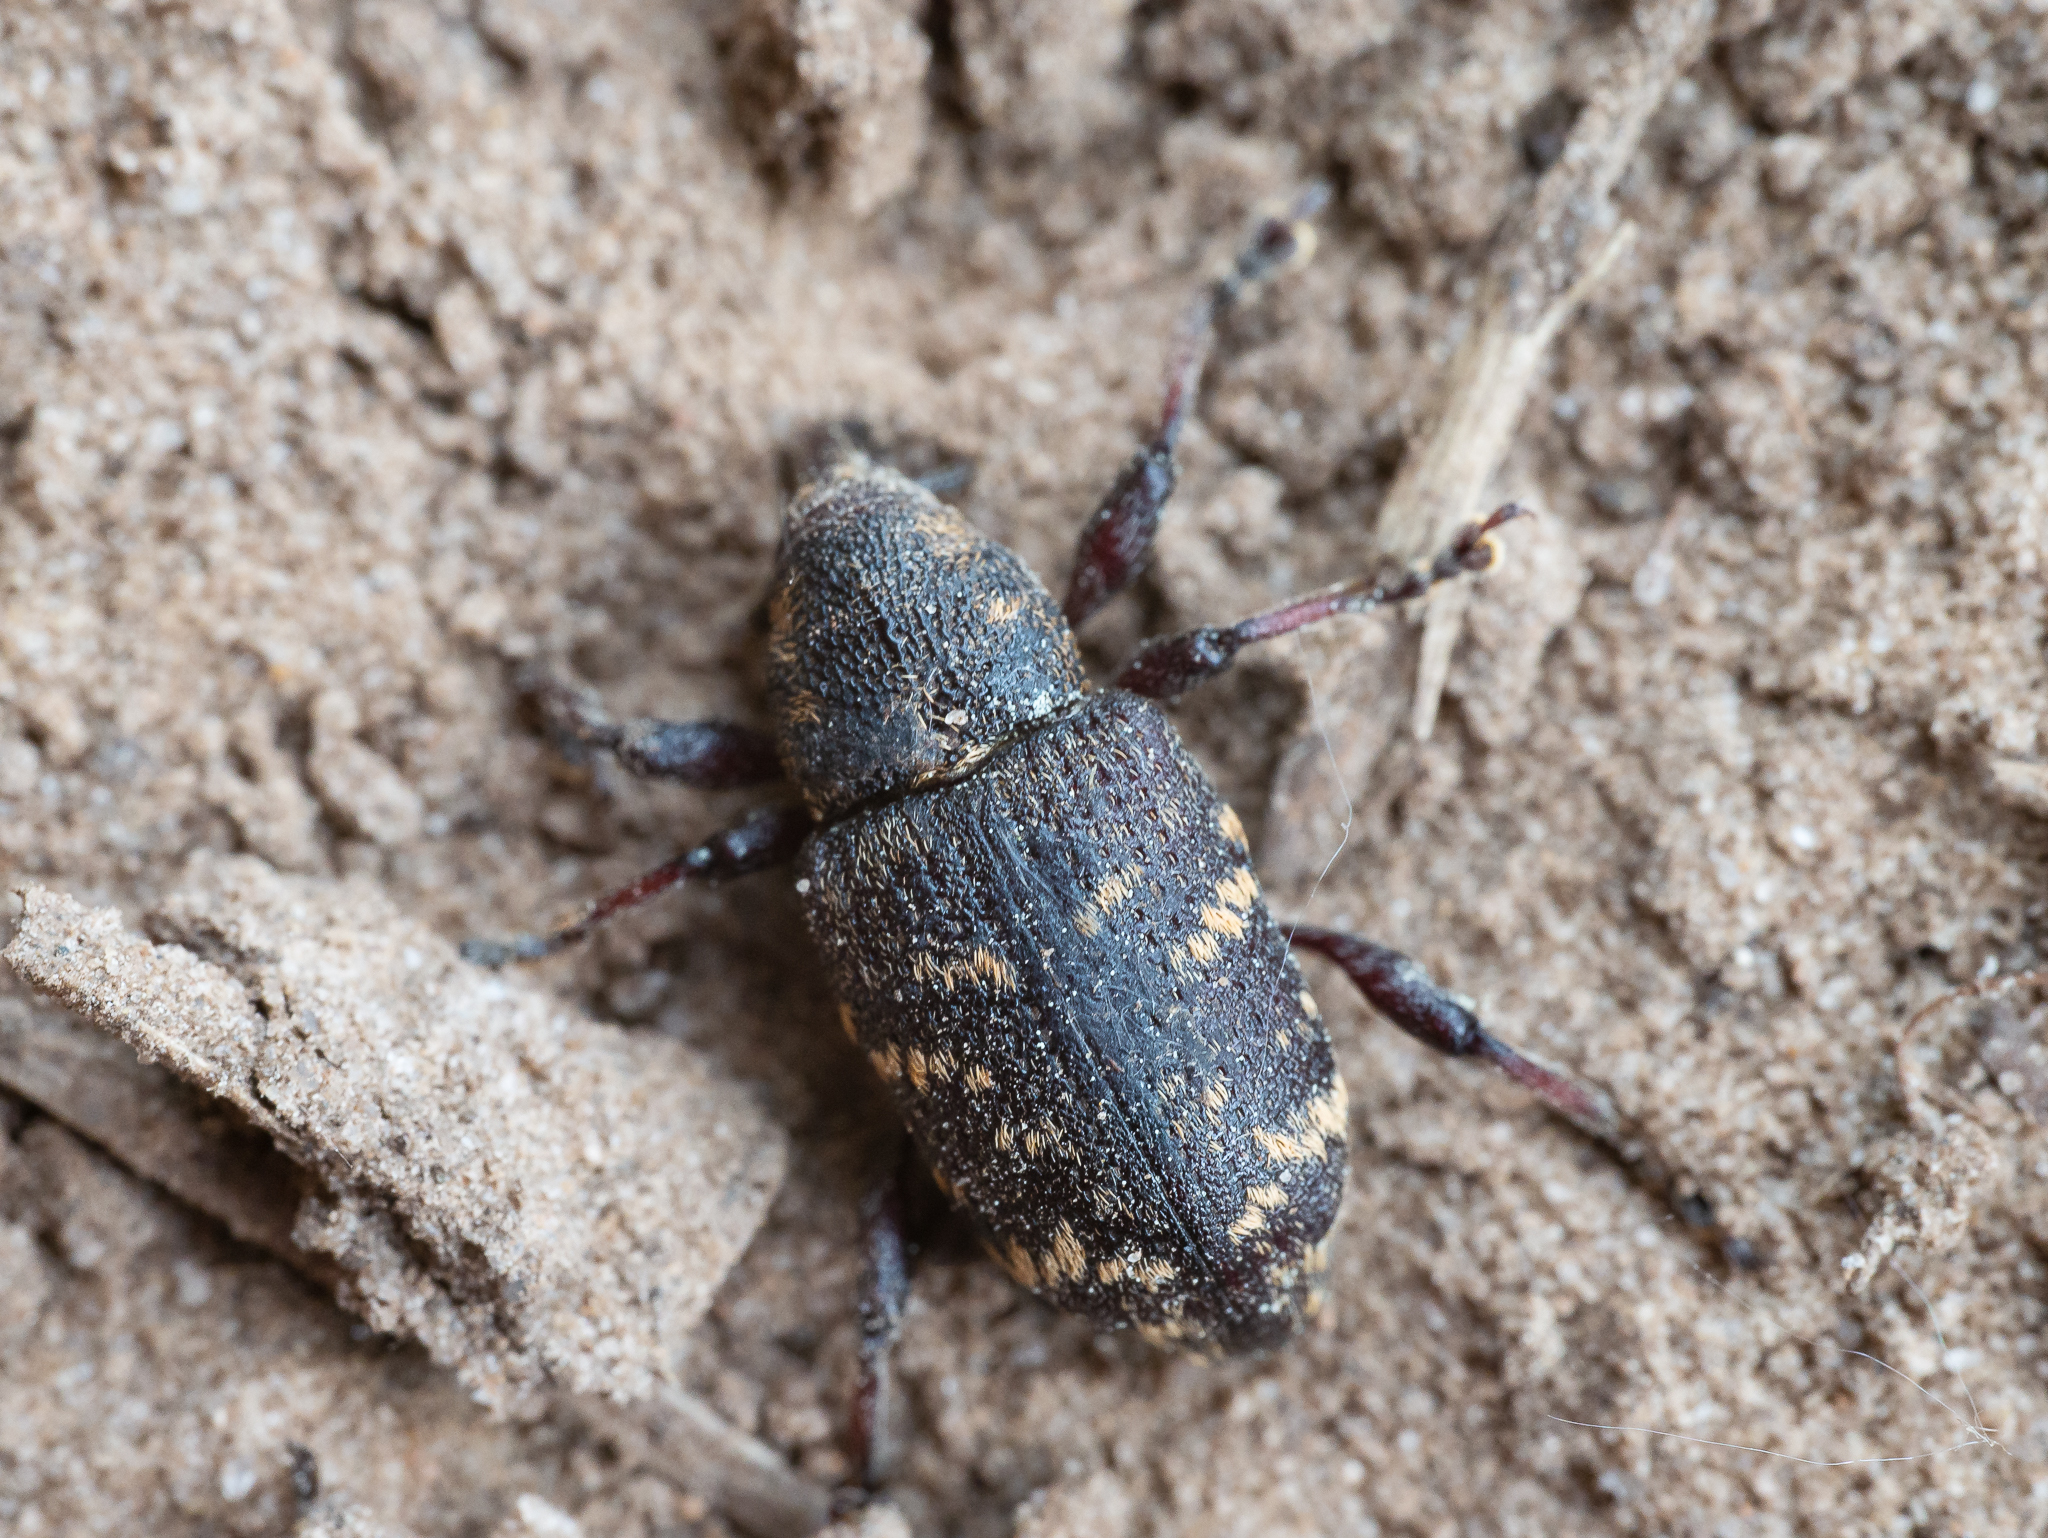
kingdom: Animalia
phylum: Arthropoda
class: Insecta
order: Coleoptera
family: Curculionidae
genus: Hylobius
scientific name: Hylobius abietis
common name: Large pine weevil
